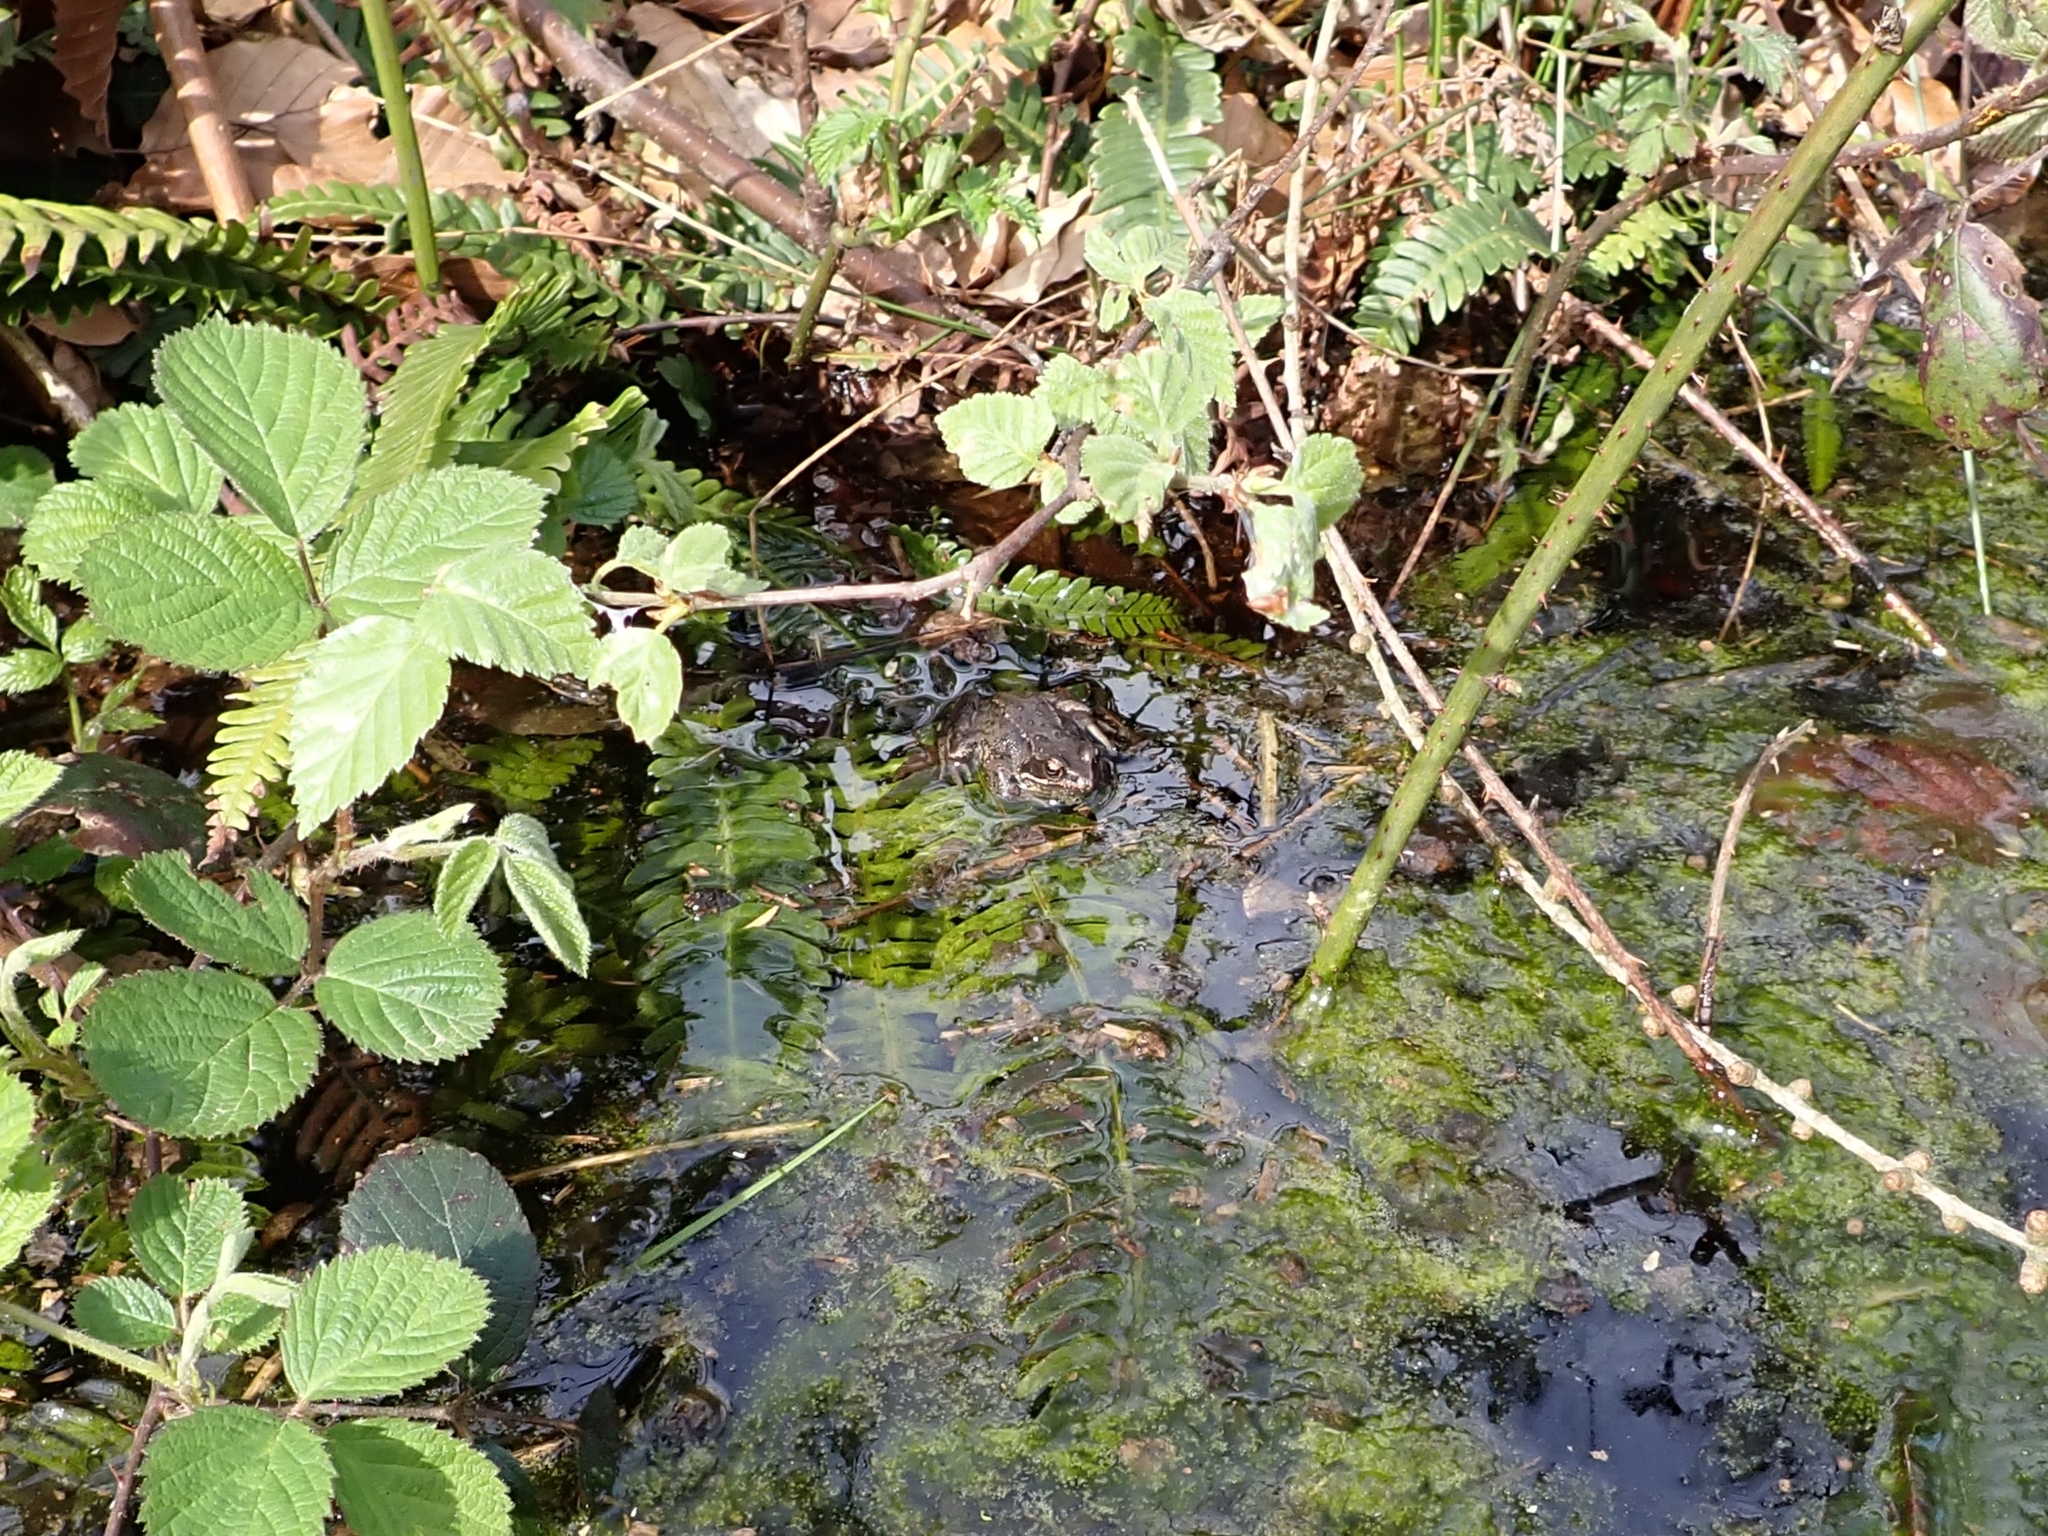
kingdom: Animalia
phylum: Chordata
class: Amphibia
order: Anura
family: Ranidae
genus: Rana
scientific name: Rana temporaria
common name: Common frog
